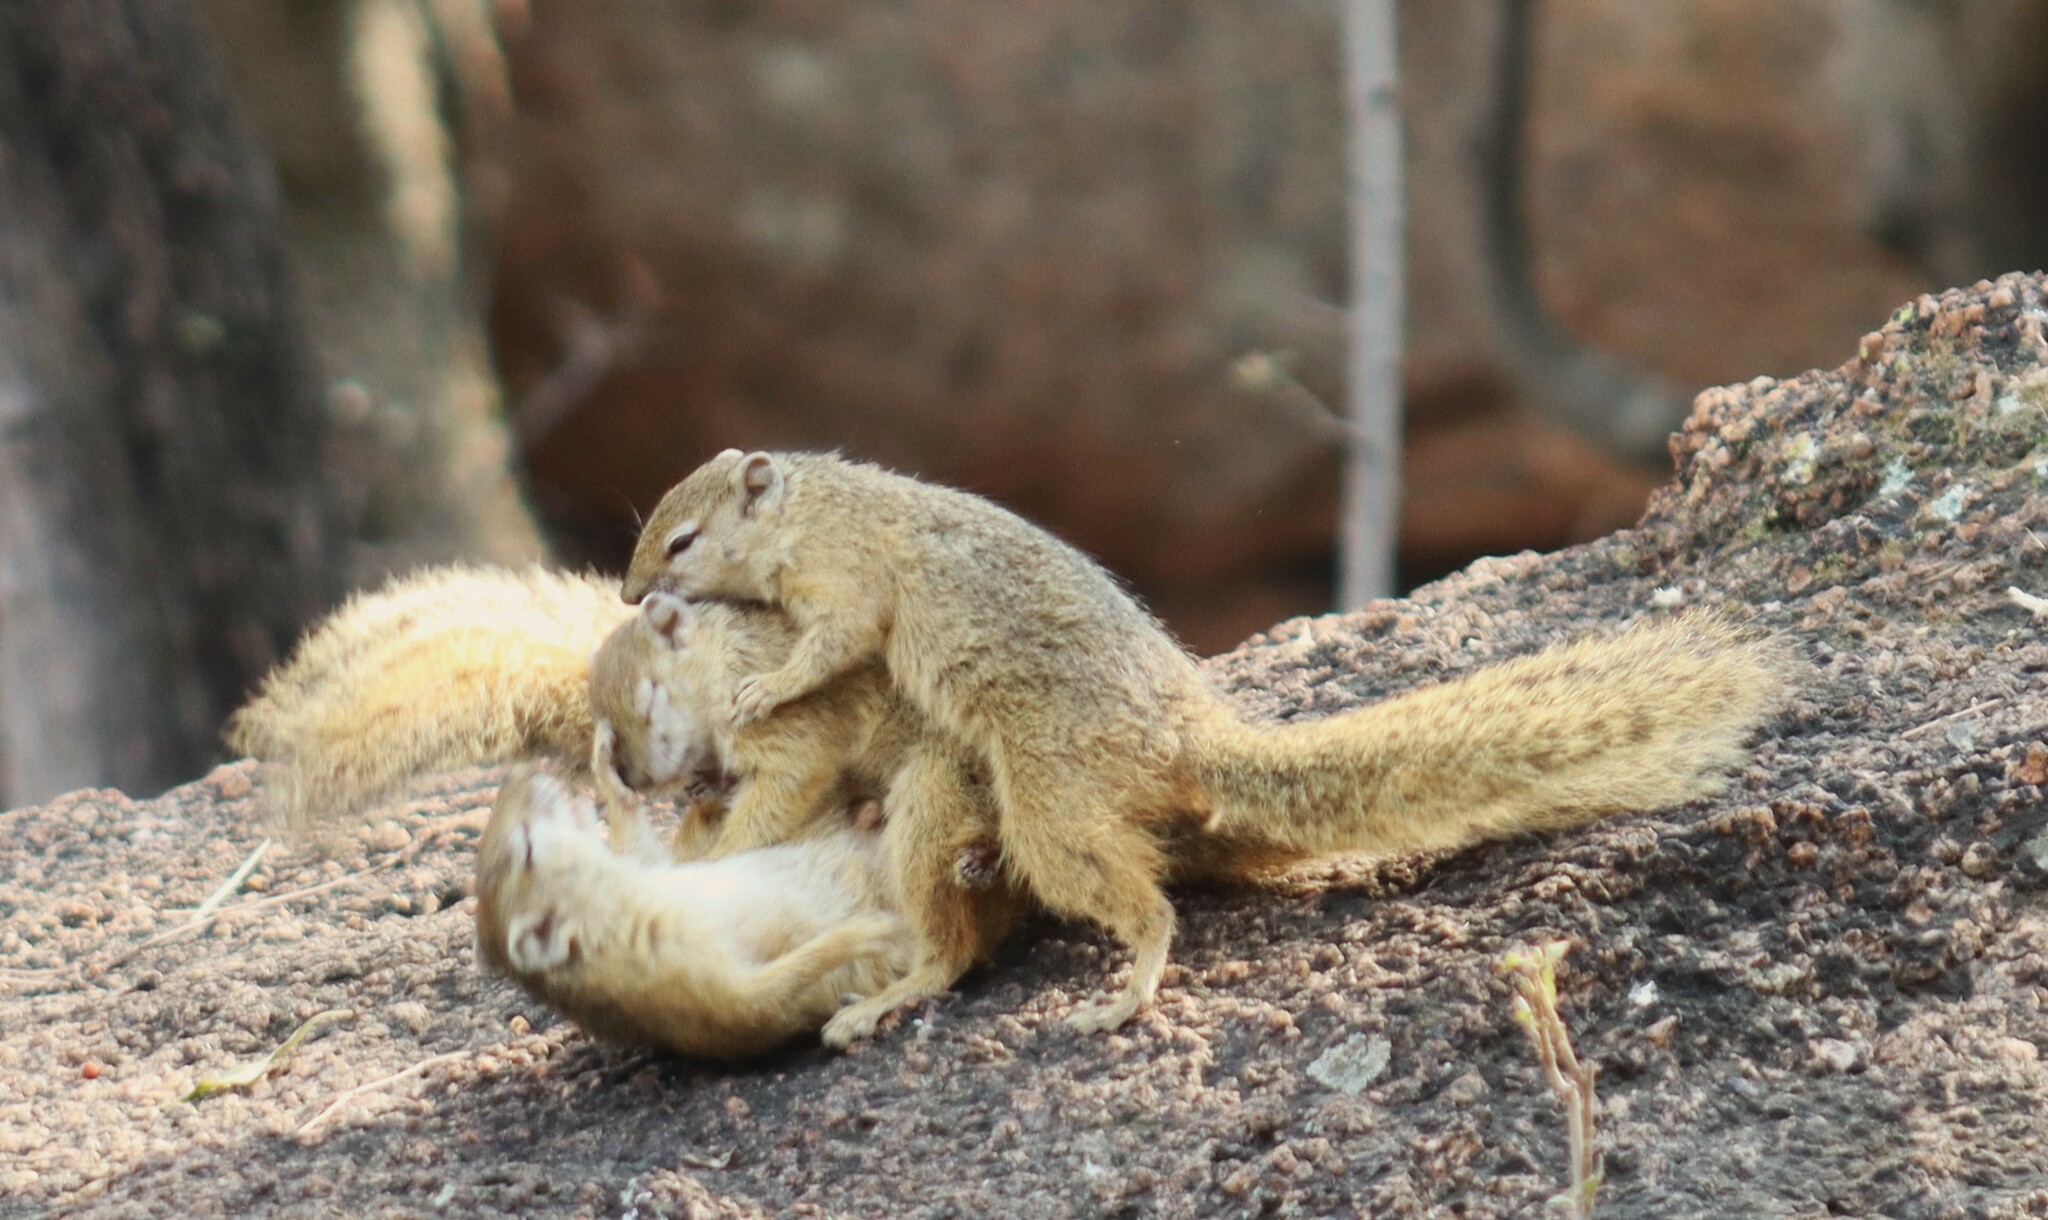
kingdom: Animalia
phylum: Chordata
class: Mammalia
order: Rodentia
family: Sciuridae
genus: Paraxerus
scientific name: Paraxerus cepapi
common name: Smith's bush squirrel
